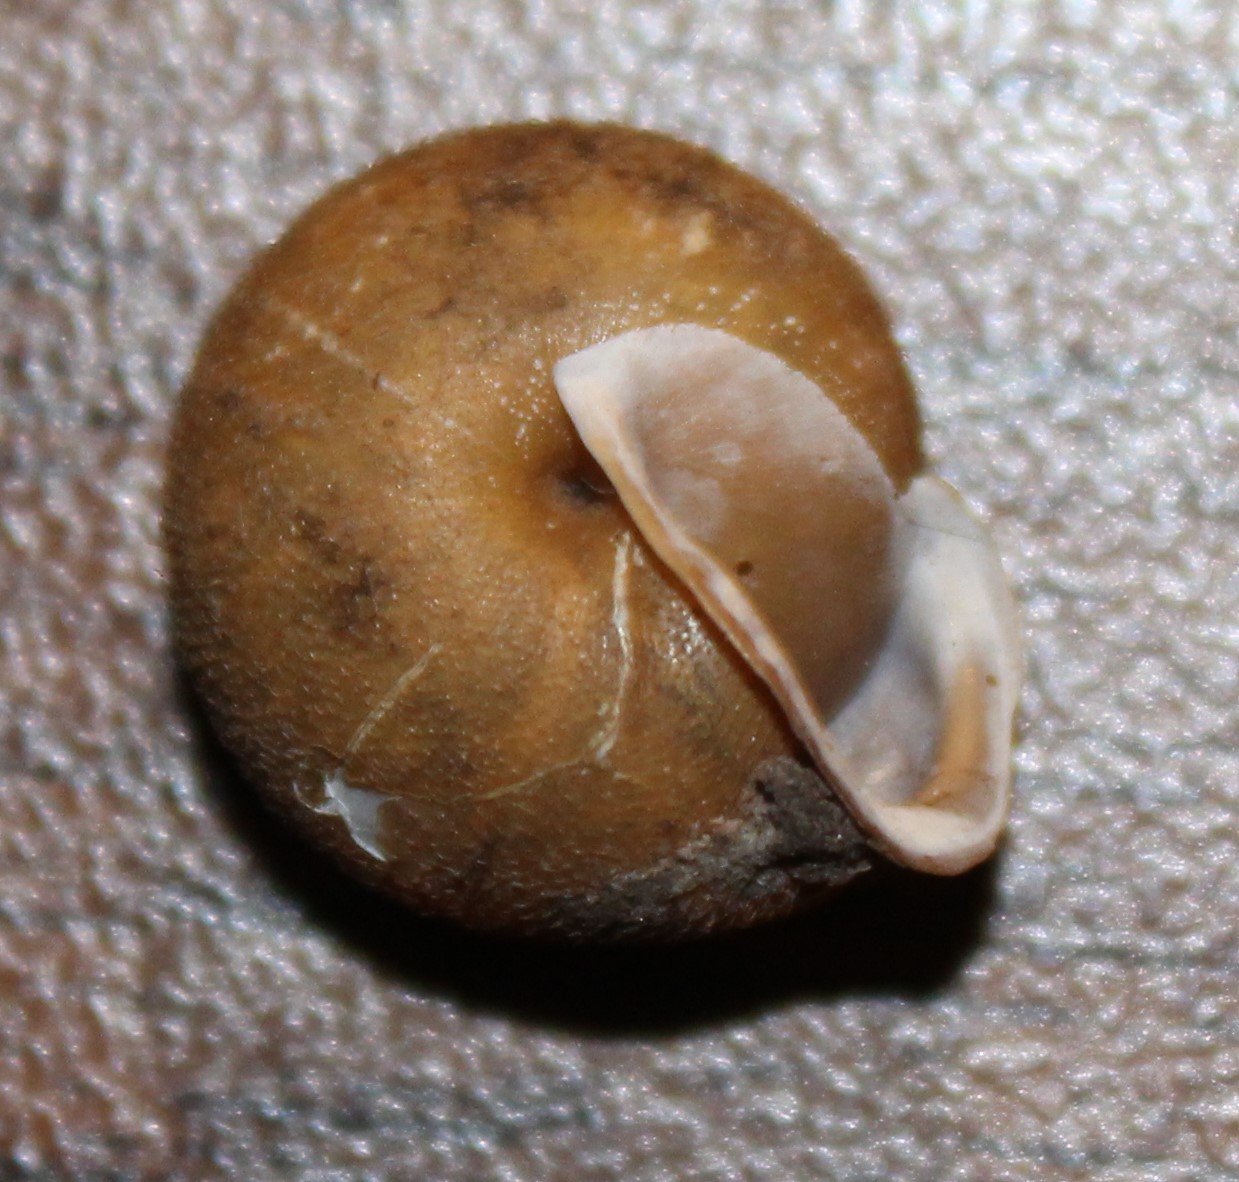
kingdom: Animalia
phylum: Mollusca
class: Gastropoda
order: Stylommatophora
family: Polygyridae
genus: Vespericola
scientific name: Vespericola columbianus
